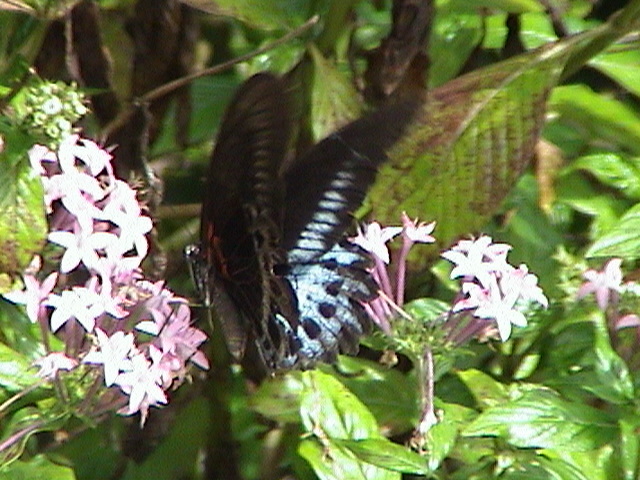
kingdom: Animalia
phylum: Arthropoda
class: Insecta
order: Lepidoptera
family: Papilionidae
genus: Papilio
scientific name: Papilio memnon
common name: Great mormon
